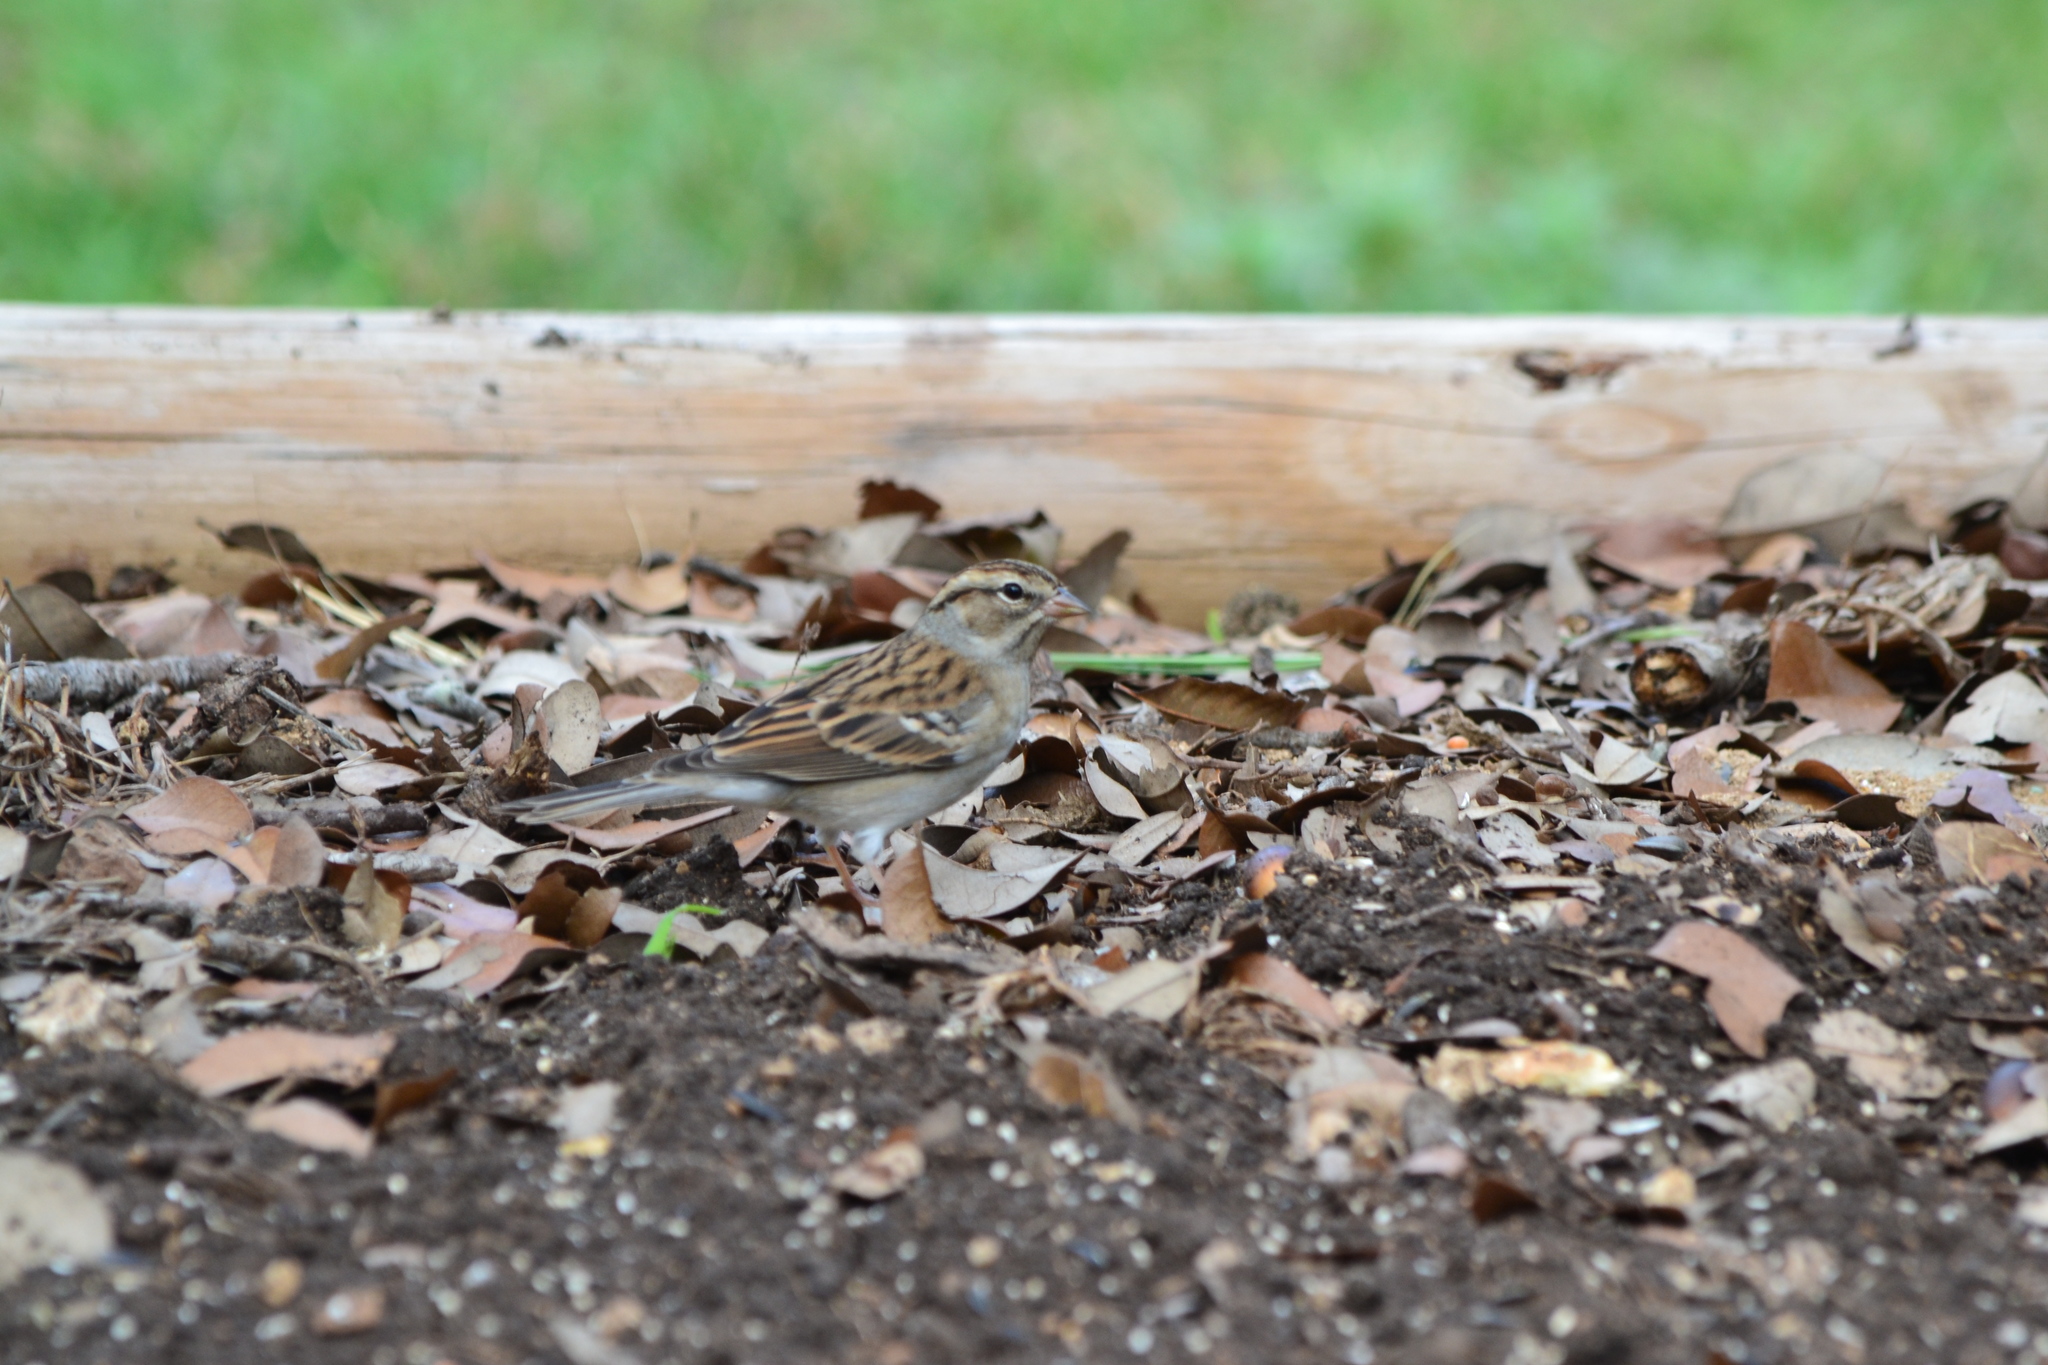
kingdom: Animalia
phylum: Chordata
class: Aves
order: Passeriformes
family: Passerellidae
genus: Spizella
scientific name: Spizella passerina
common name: Chipping sparrow
